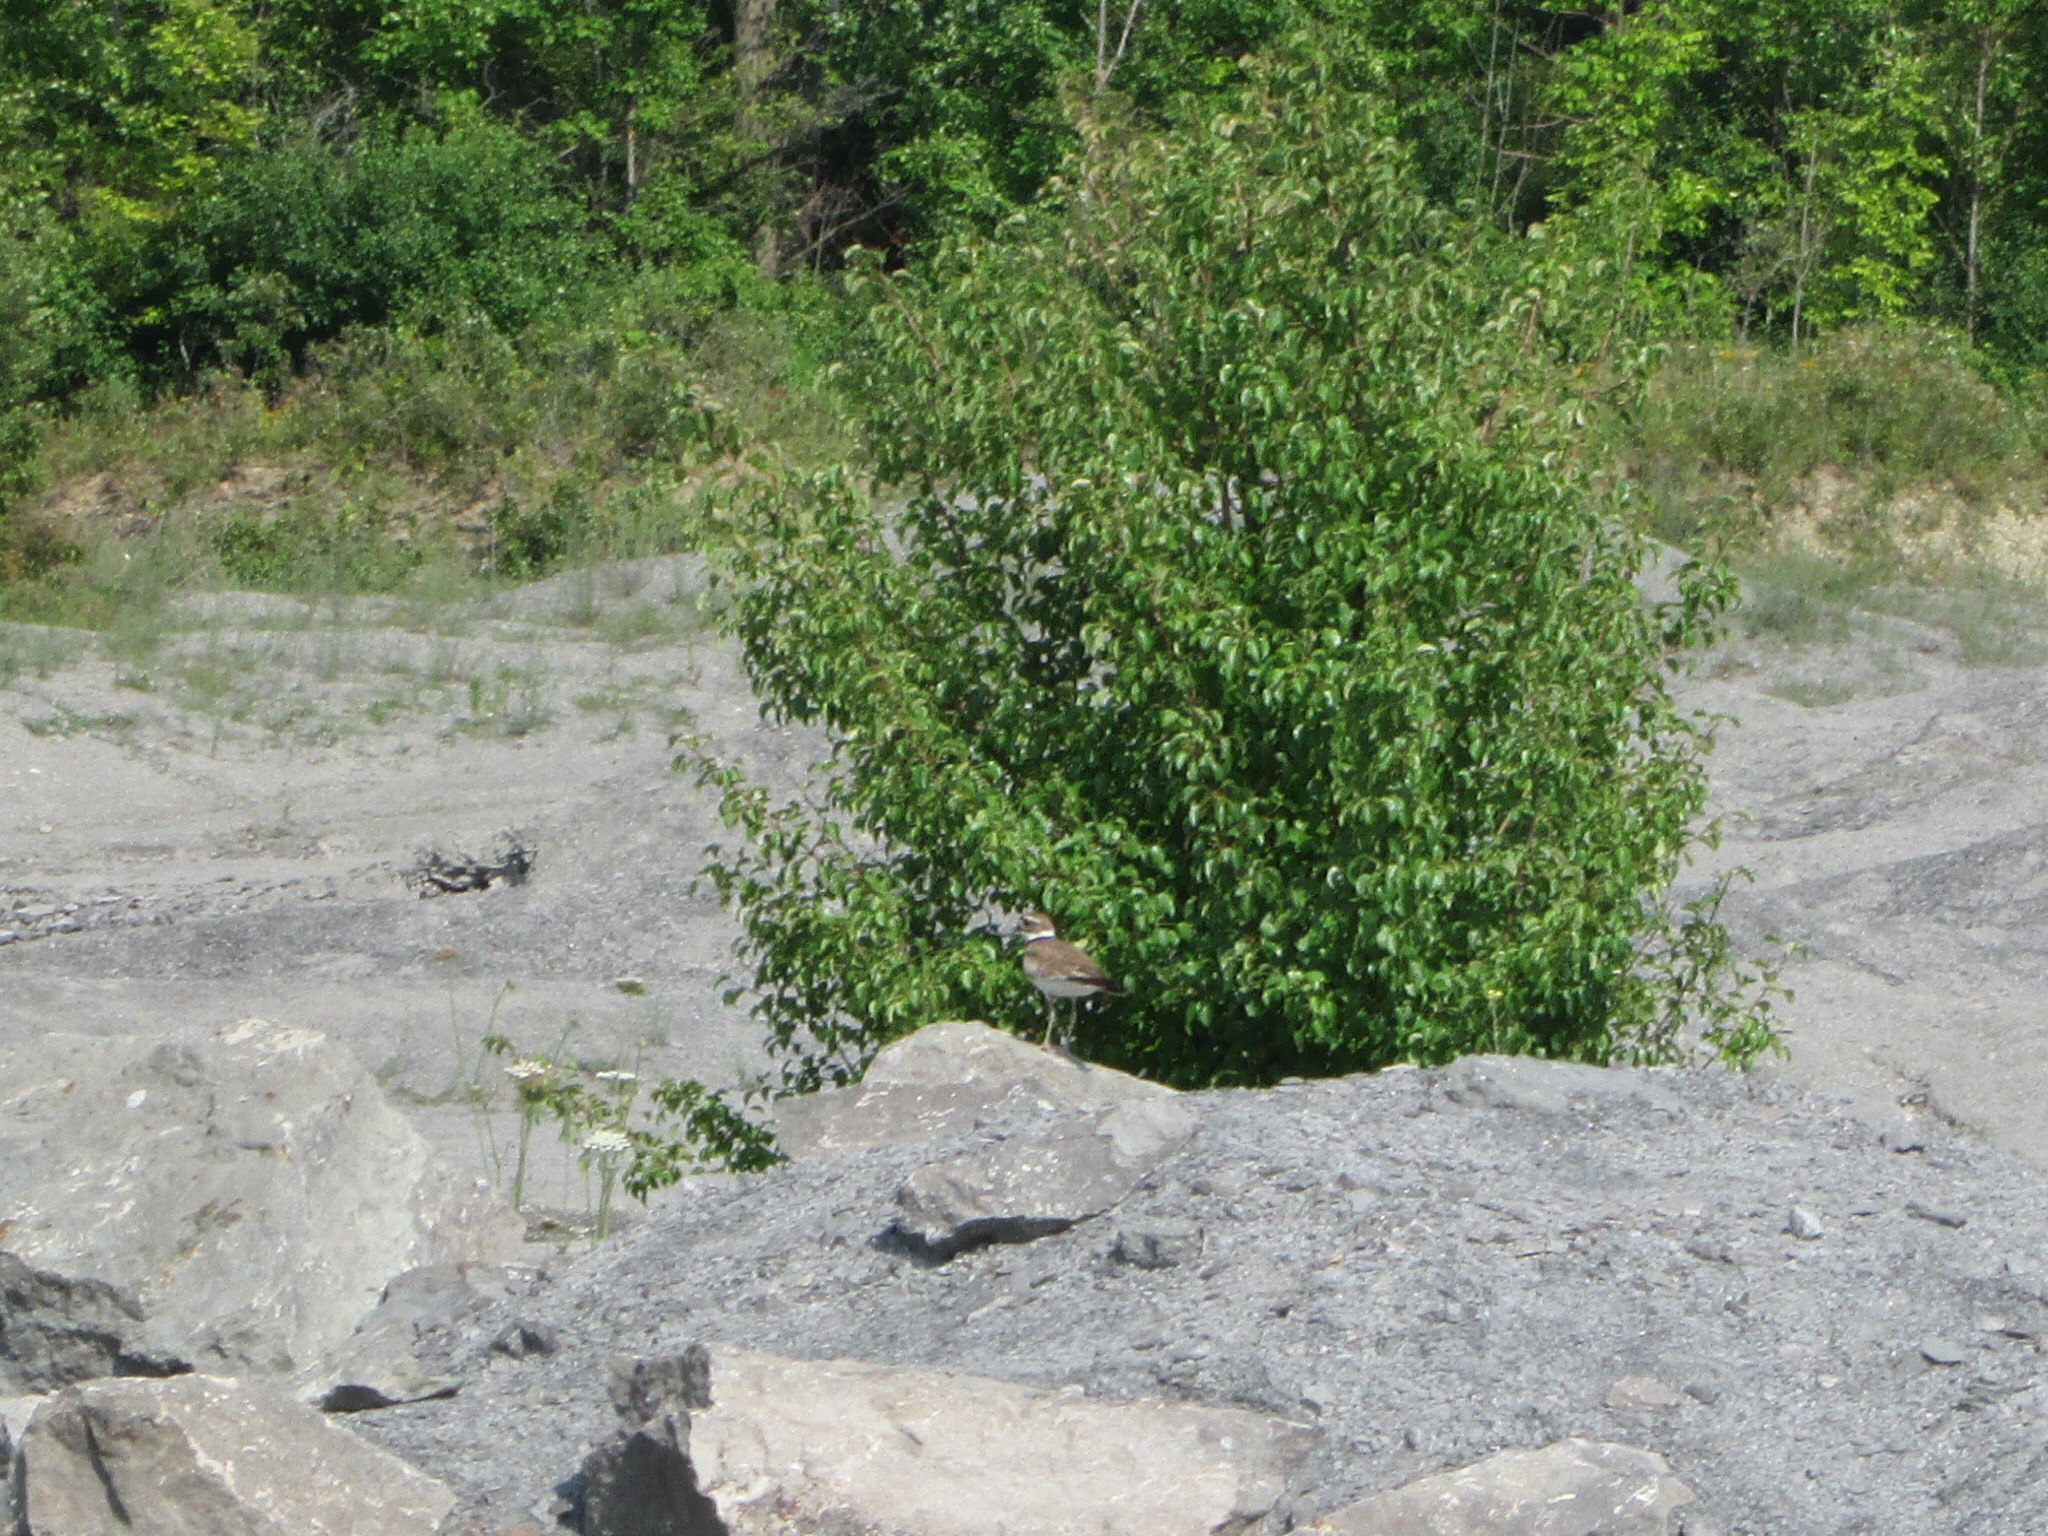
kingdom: Animalia
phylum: Chordata
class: Aves
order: Charadriiformes
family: Charadriidae
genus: Charadrius
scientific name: Charadrius vociferus
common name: Killdeer
